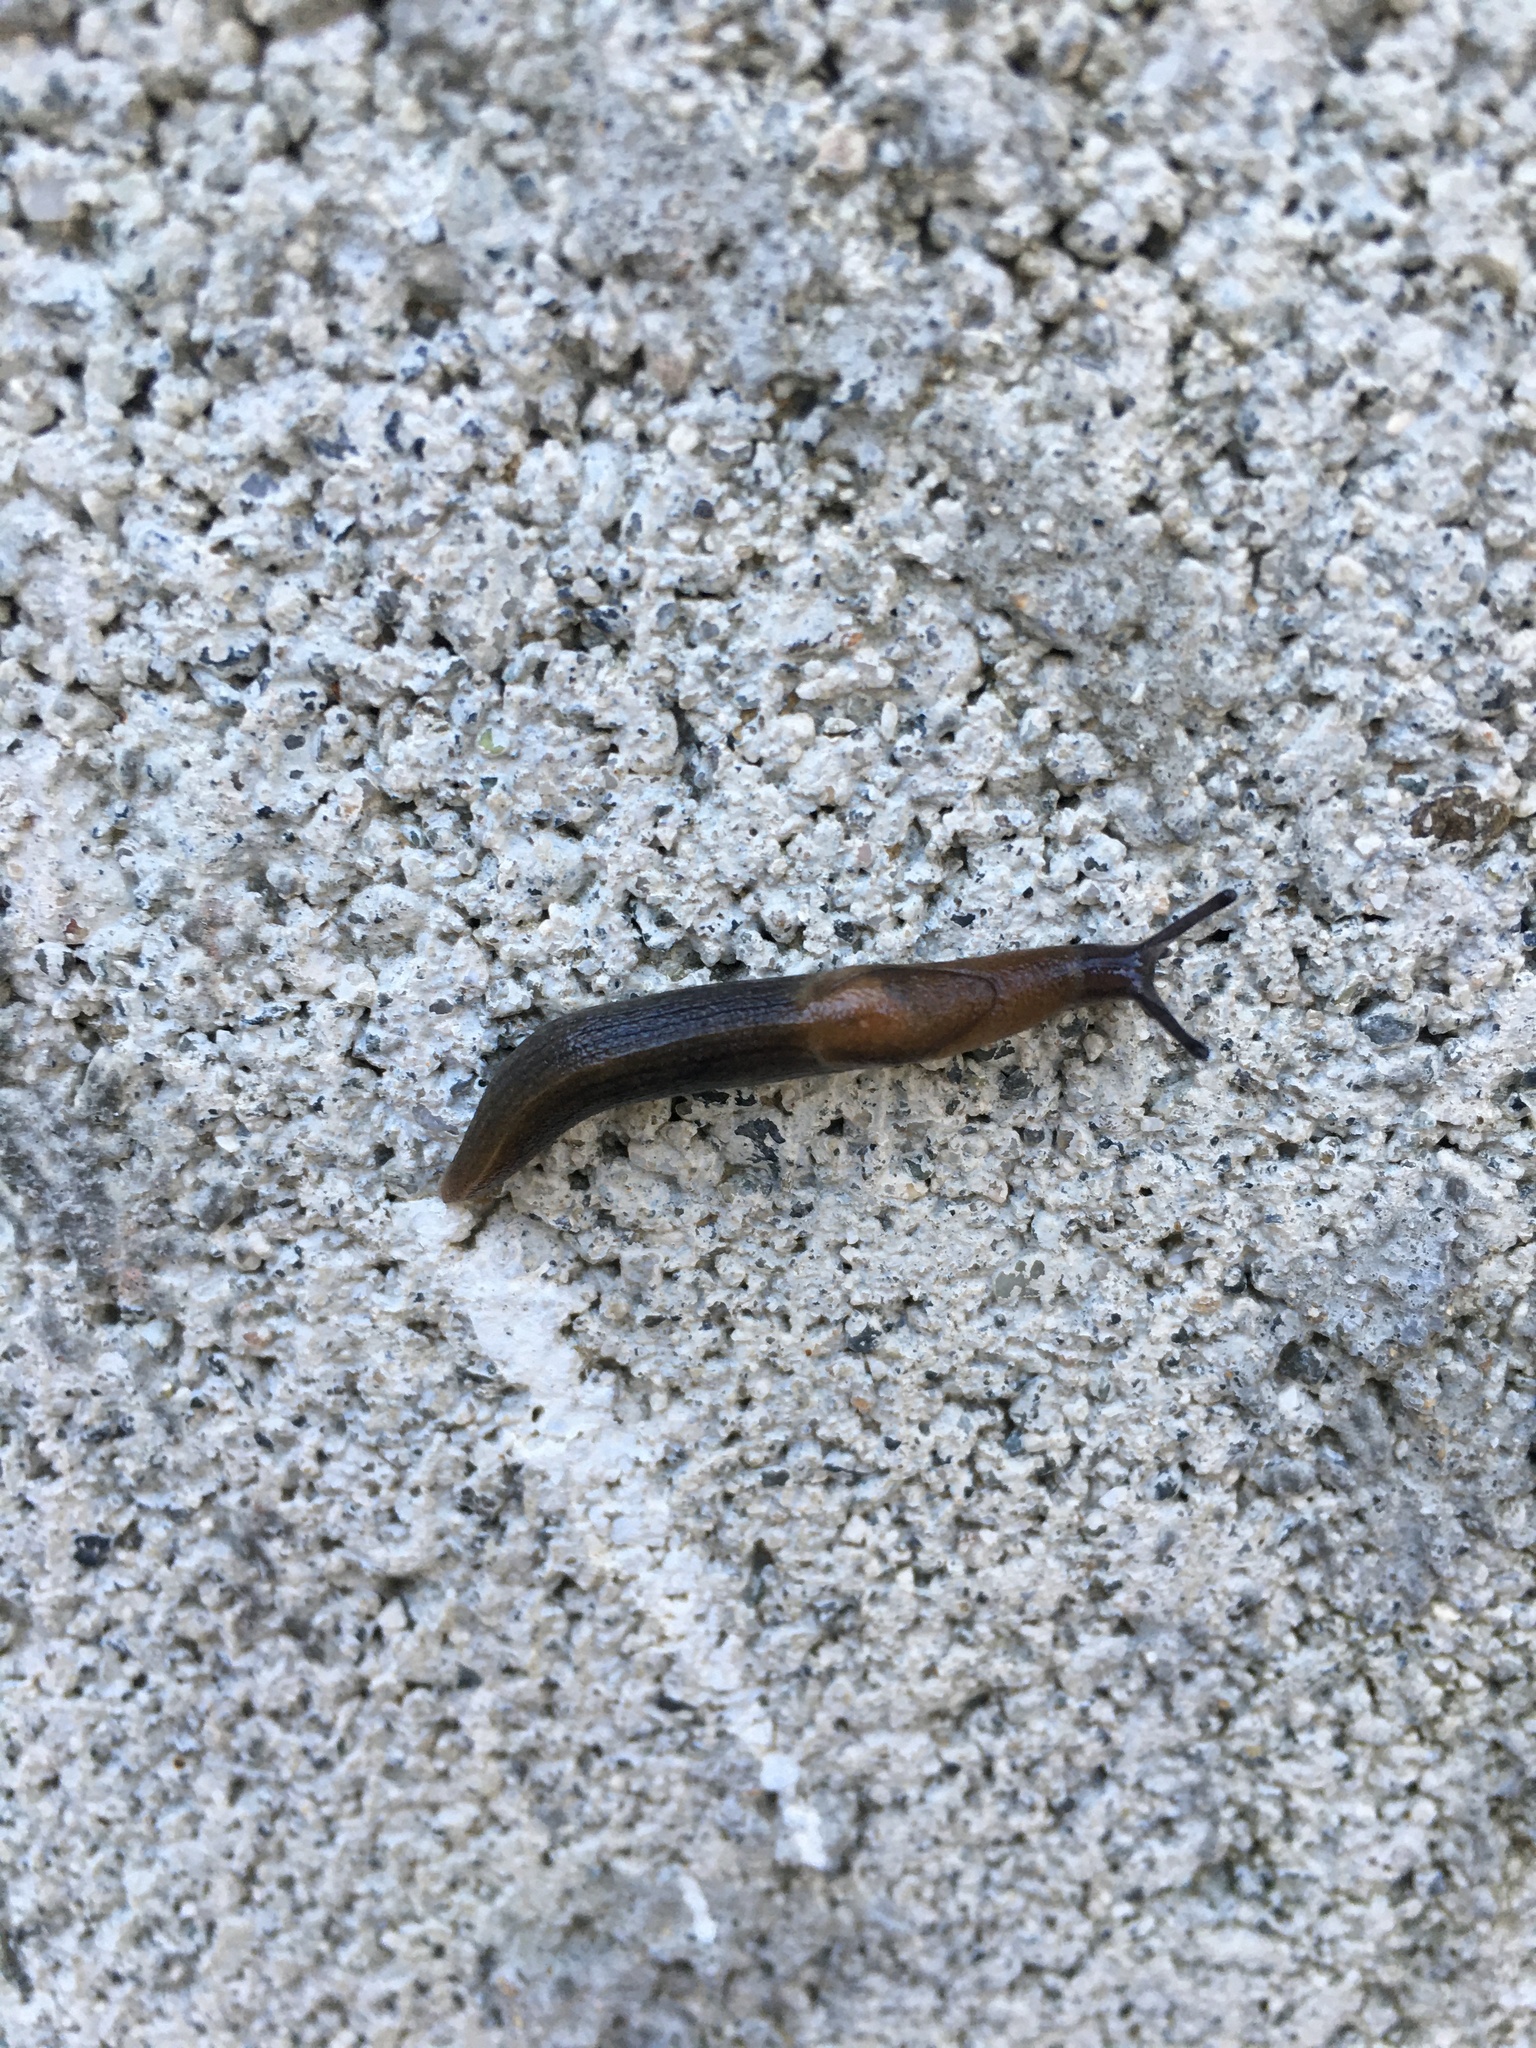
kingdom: Animalia
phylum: Mollusca
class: Gastropoda
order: Stylommatophora
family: Milacidae
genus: Milax
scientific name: Milax gagates
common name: Greenhouse slug
